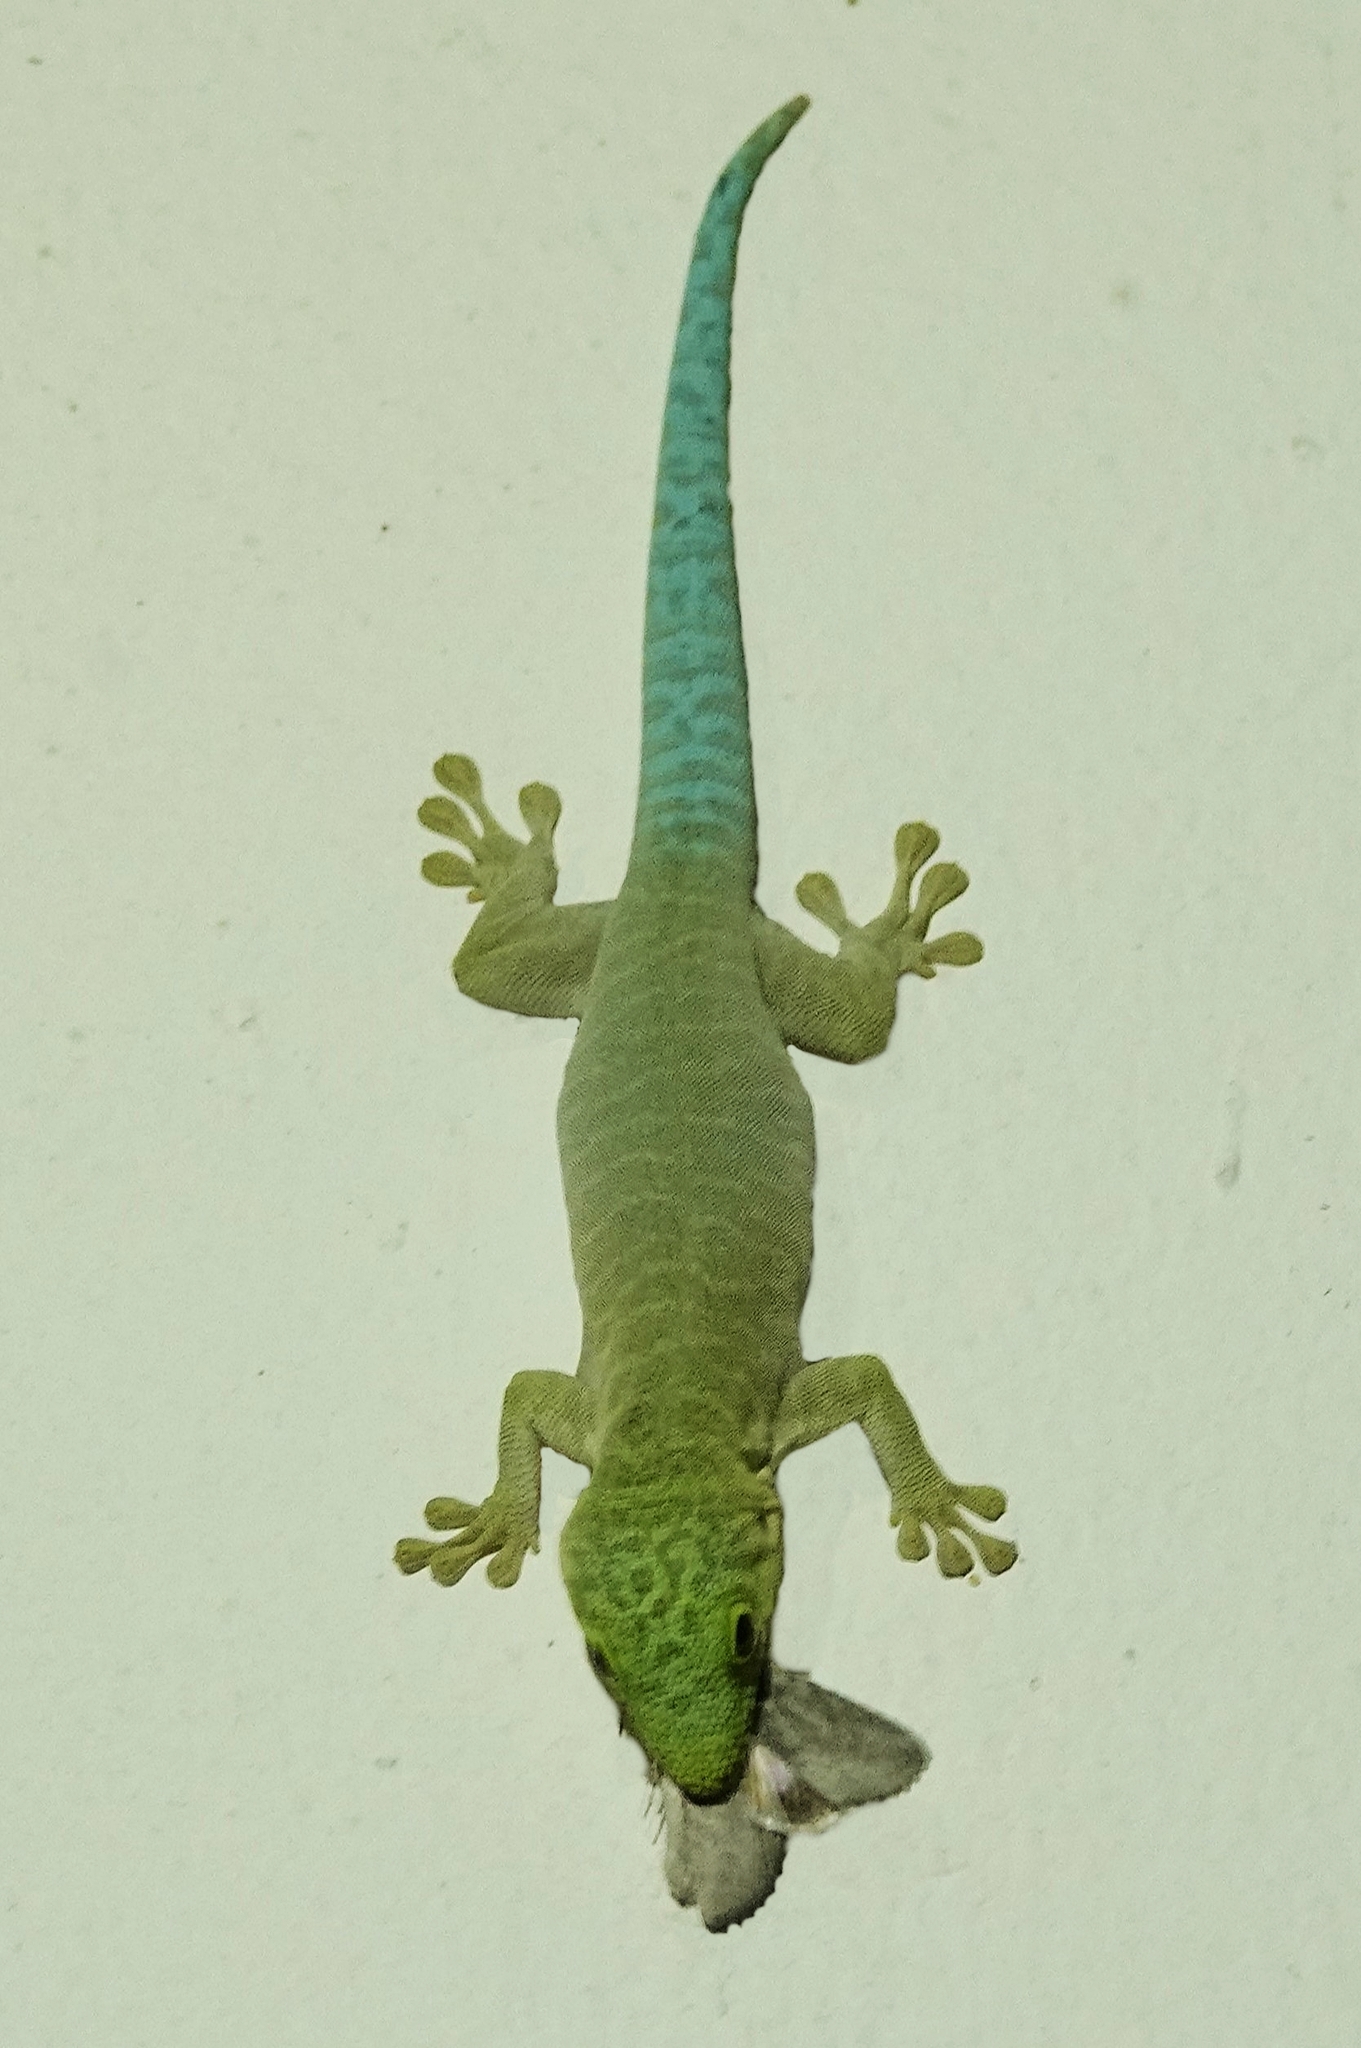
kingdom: Animalia
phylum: Chordata
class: Squamata
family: Gekkonidae
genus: Phelsuma
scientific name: Phelsuma standingi
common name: Standing's day gecko
